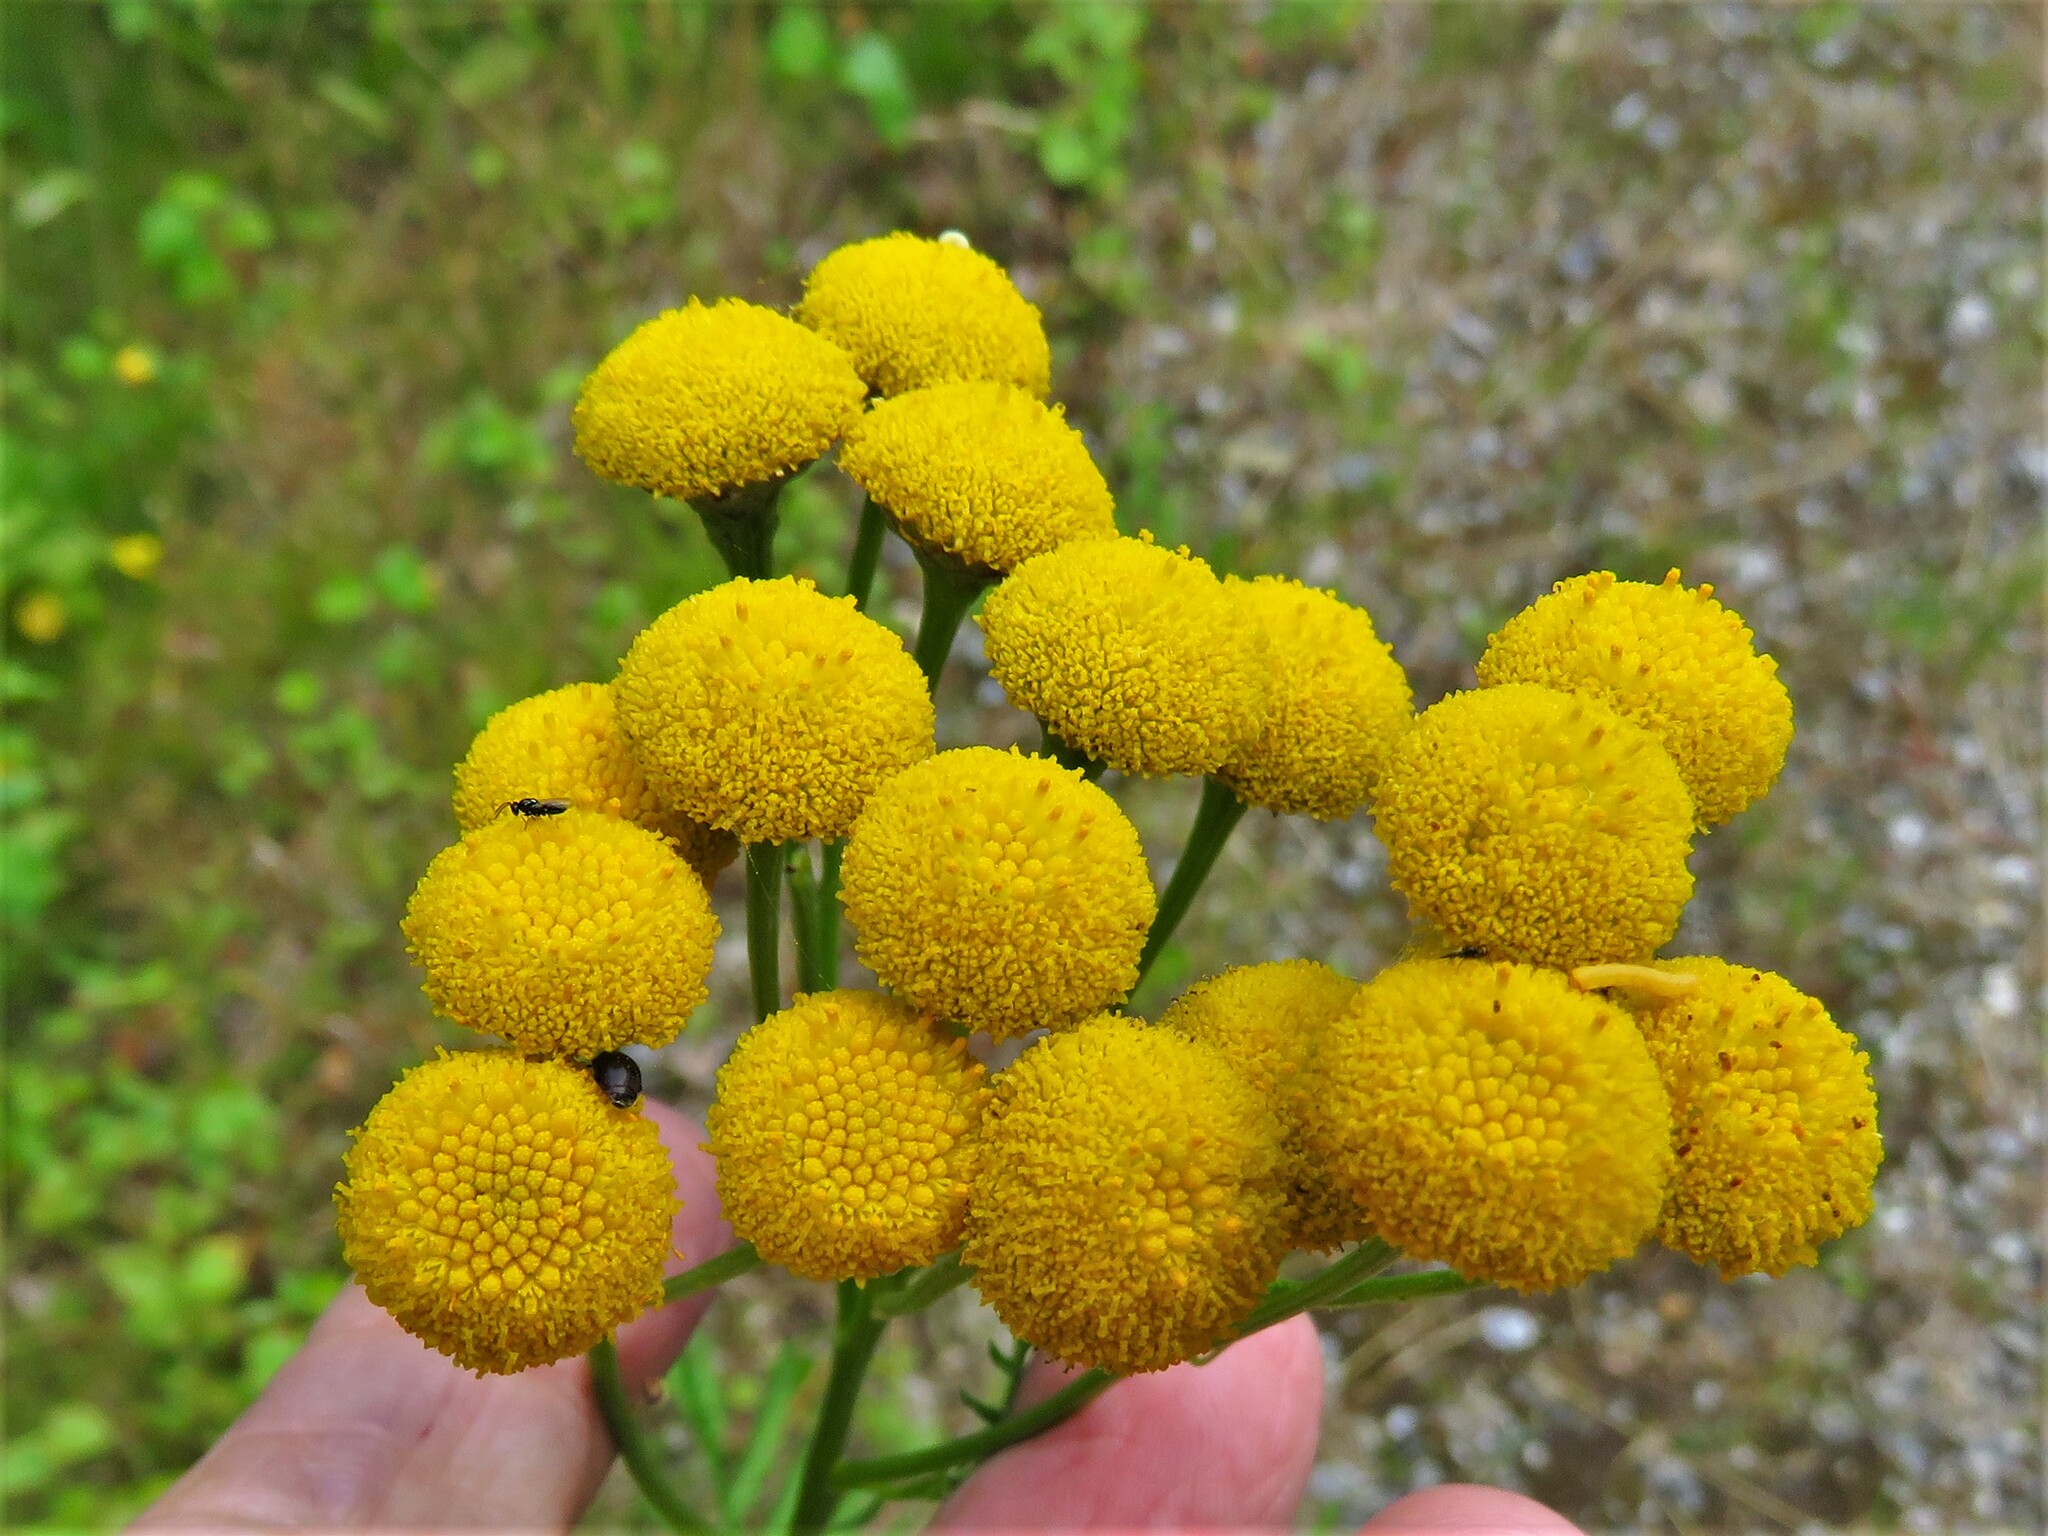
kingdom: Plantae
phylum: Tracheophyta
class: Magnoliopsida
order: Asterales
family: Asteraceae
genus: Tanacetum
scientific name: Tanacetum vulgare
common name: Common tansy
